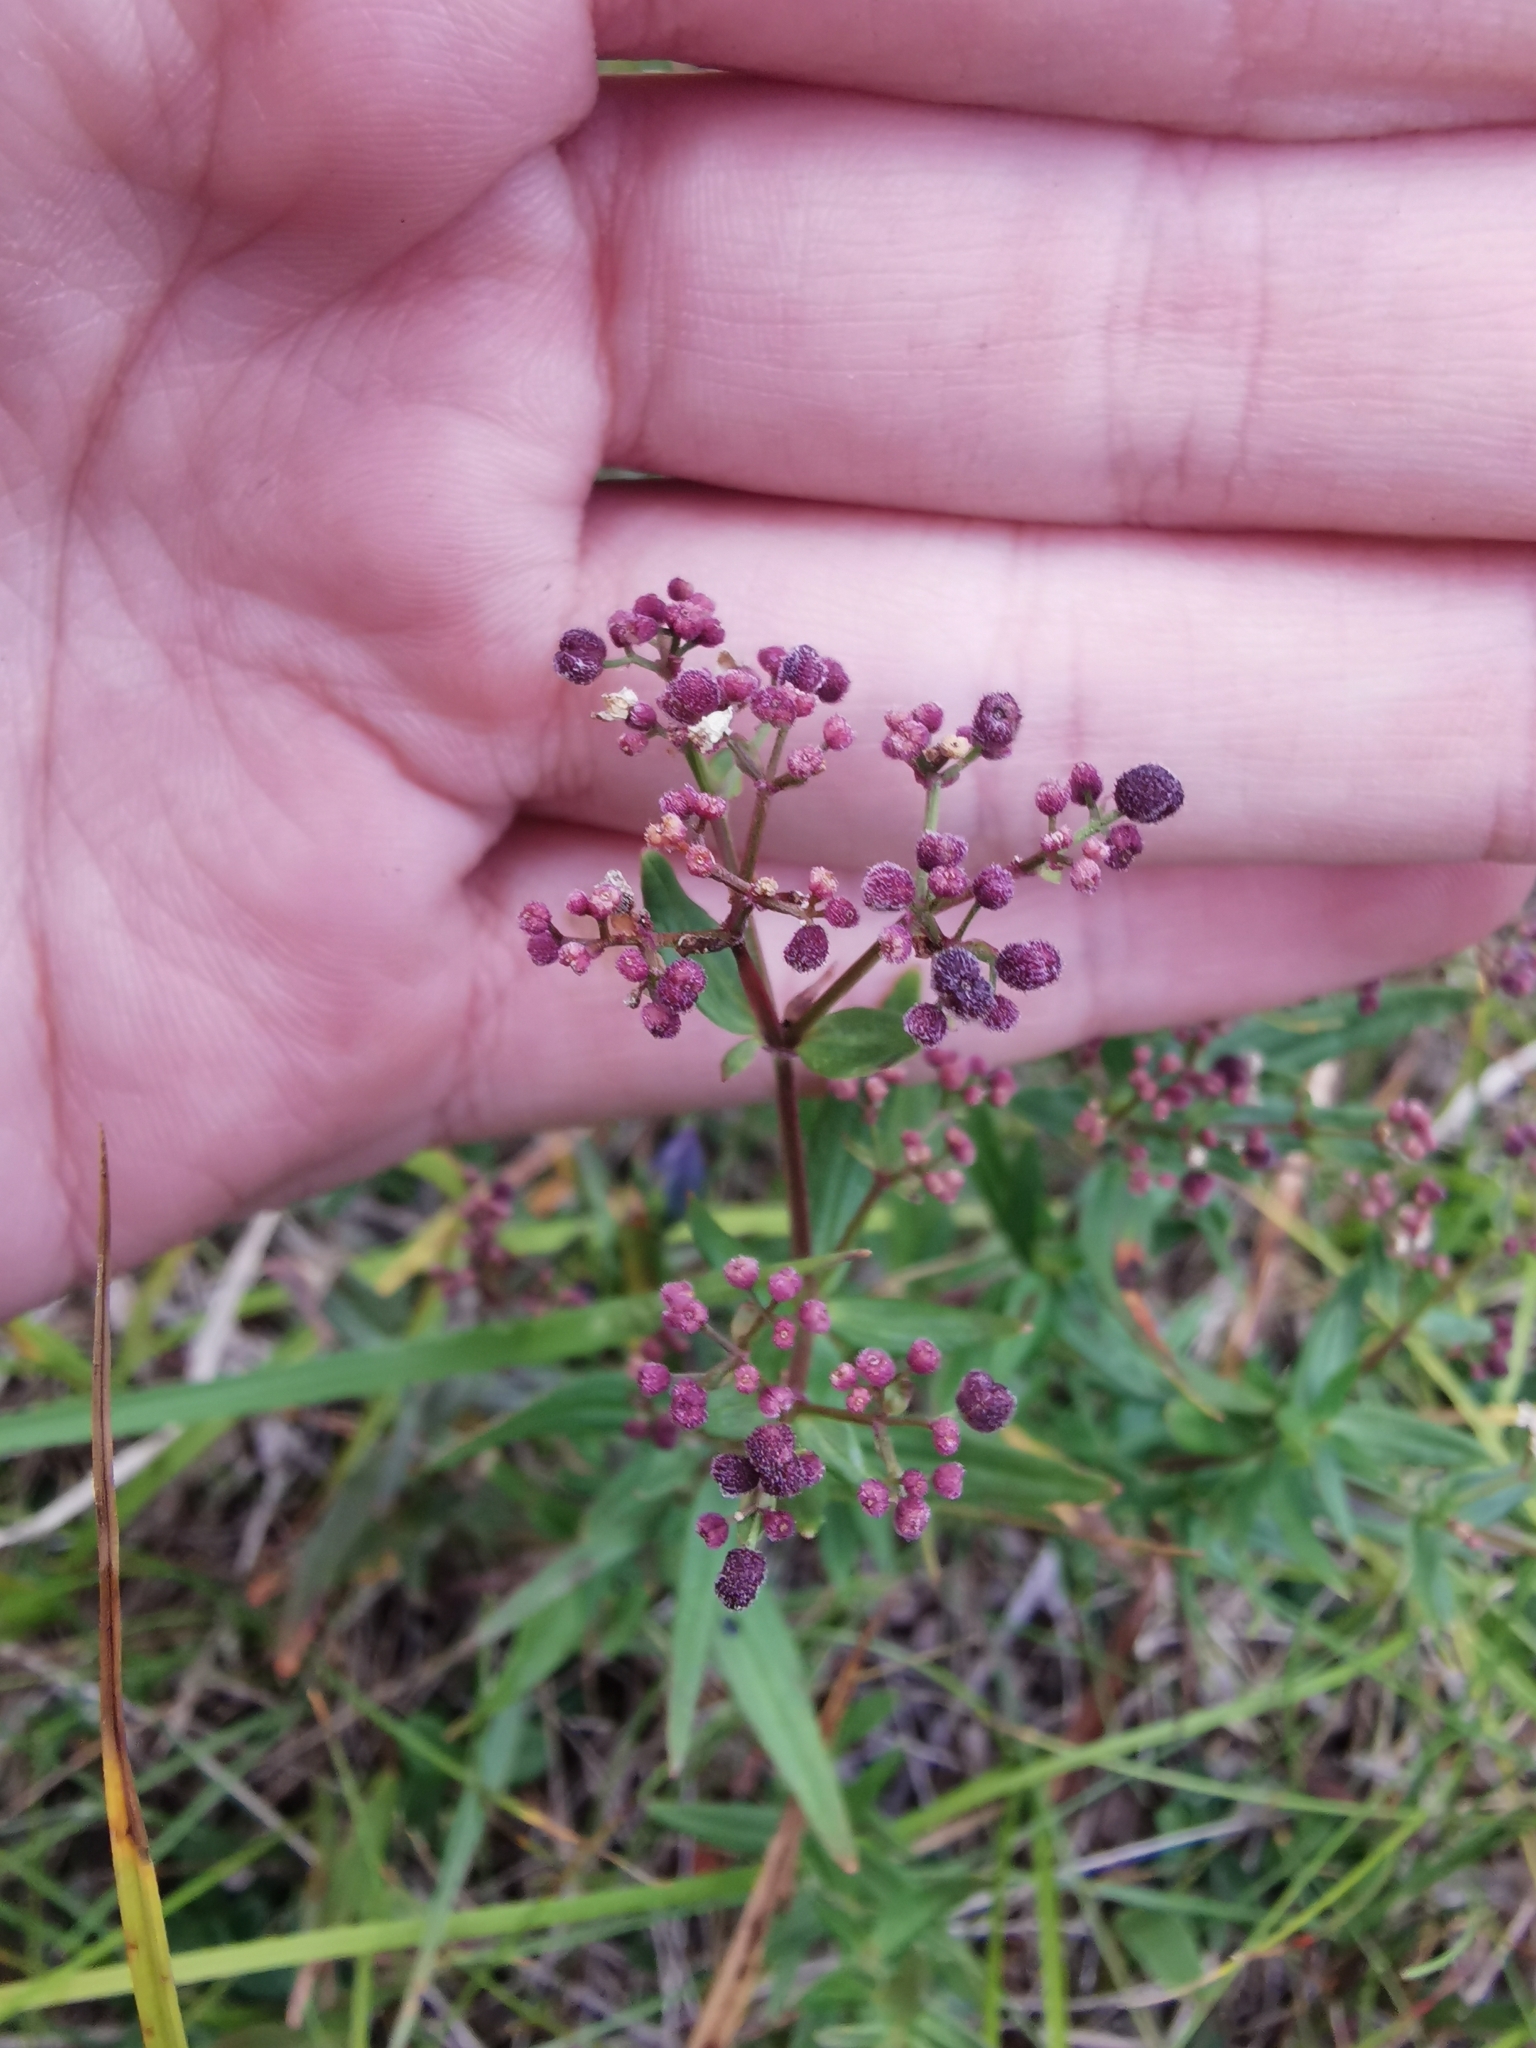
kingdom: Plantae
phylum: Tracheophyta
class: Magnoliopsida
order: Gentianales
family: Rubiaceae
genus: Galium
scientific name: Galium boreale
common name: Northern bedstraw
